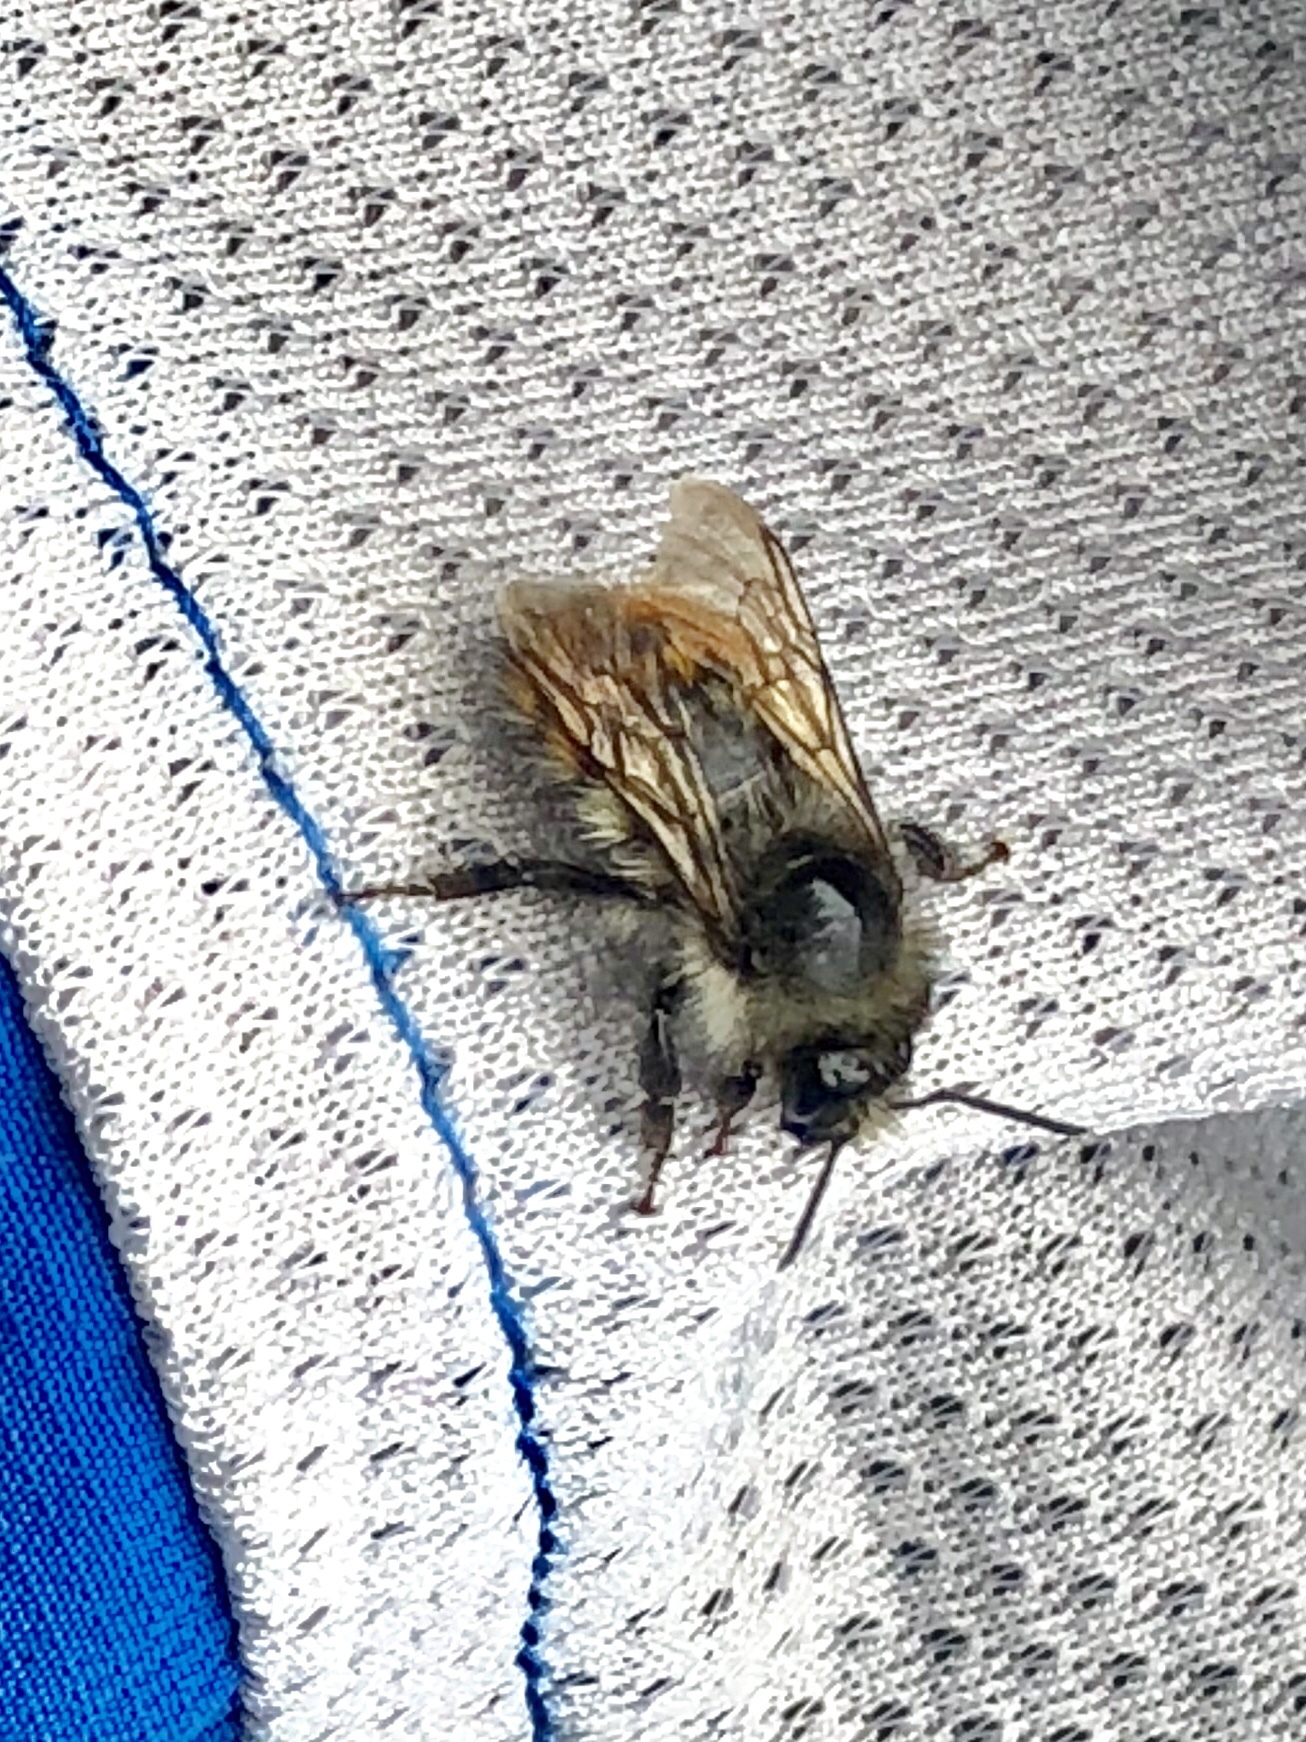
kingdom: Animalia
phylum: Arthropoda
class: Insecta
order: Hymenoptera
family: Apidae
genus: Pyrobombus
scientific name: Pyrobombus
